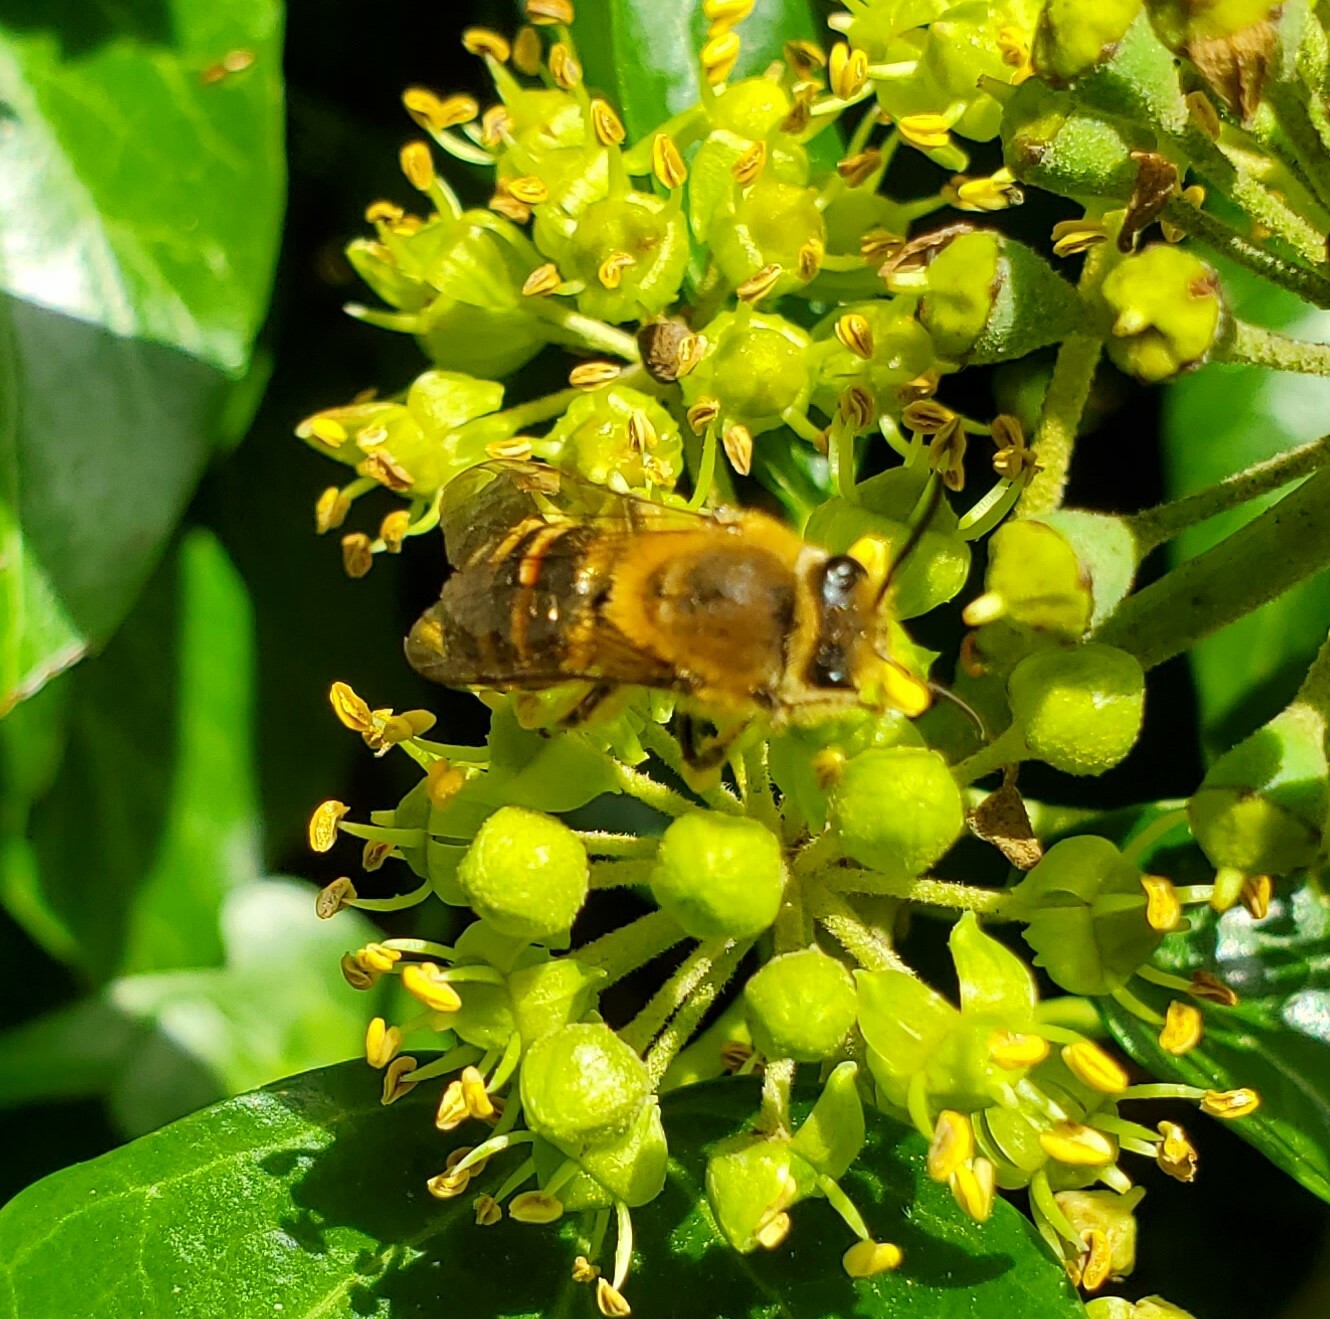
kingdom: Animalia
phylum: Arthropoda
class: Insecta
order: Hymenoptera
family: Colletidae
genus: Colletes
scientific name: Colletes hederae
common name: Ivy bee
